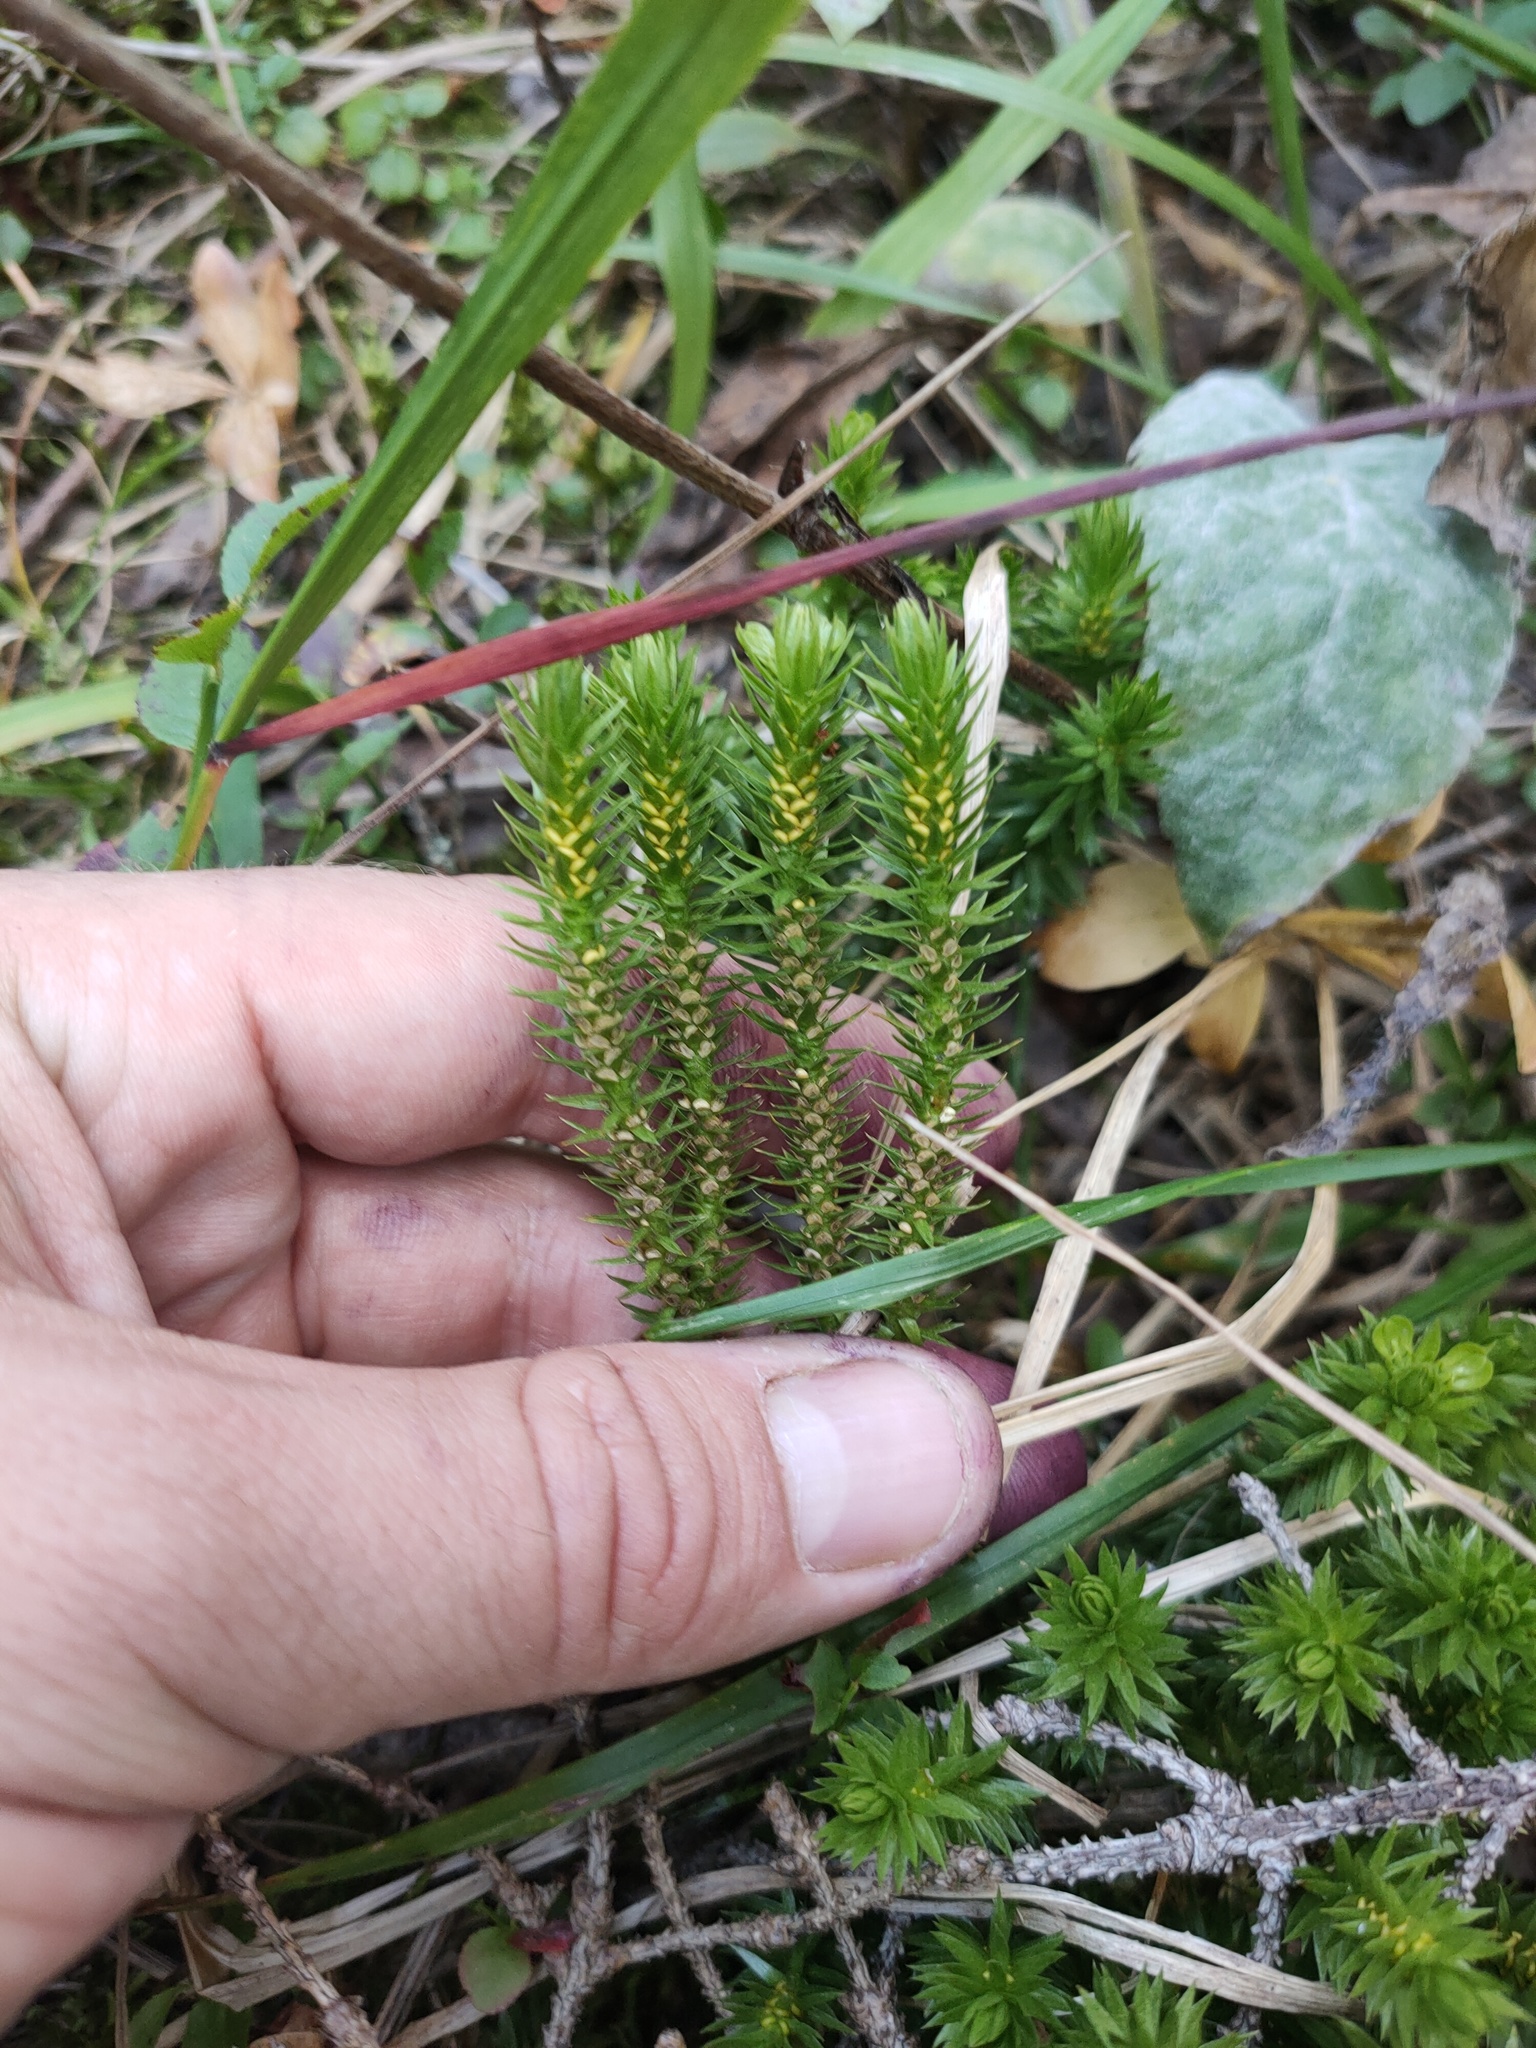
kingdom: Plantae
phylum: Tracheophyta
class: Lycopodiopsida
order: Lycopodiales
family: Lycopodiaceae
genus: Huperzia
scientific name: Huperzia selago
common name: Northern firmoss
